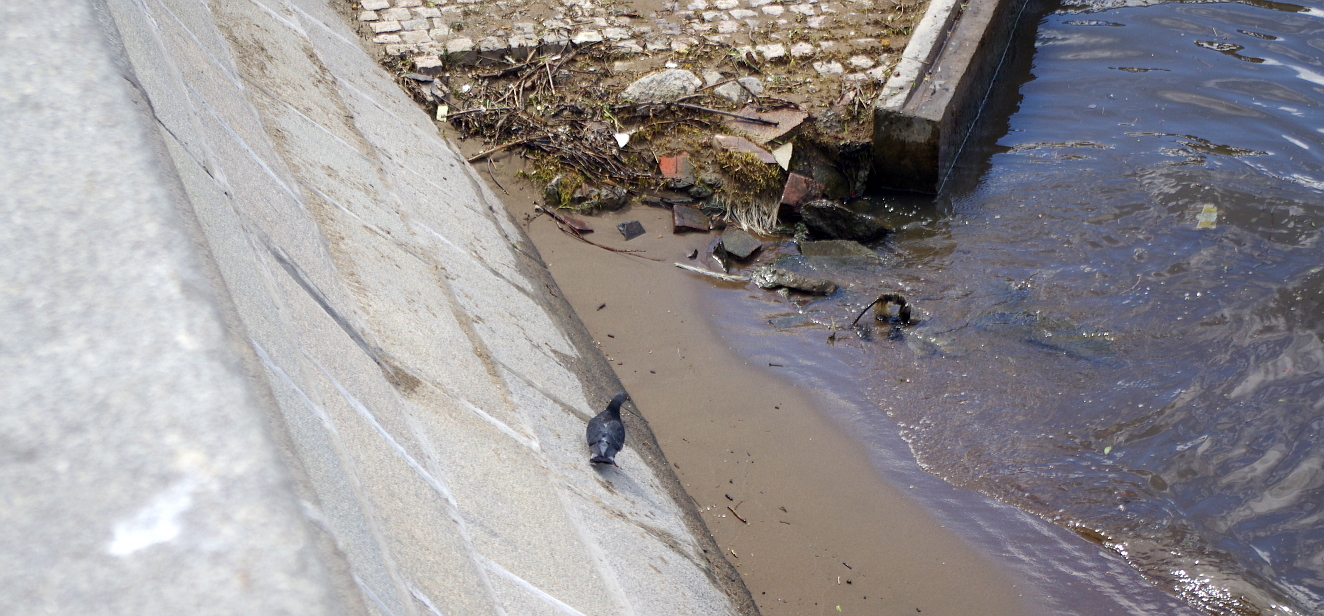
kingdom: Animalia
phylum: Chordata
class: Aves
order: Columbiformes
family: Columbidae
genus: Columba
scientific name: Columba livia
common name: Rock pigeon
